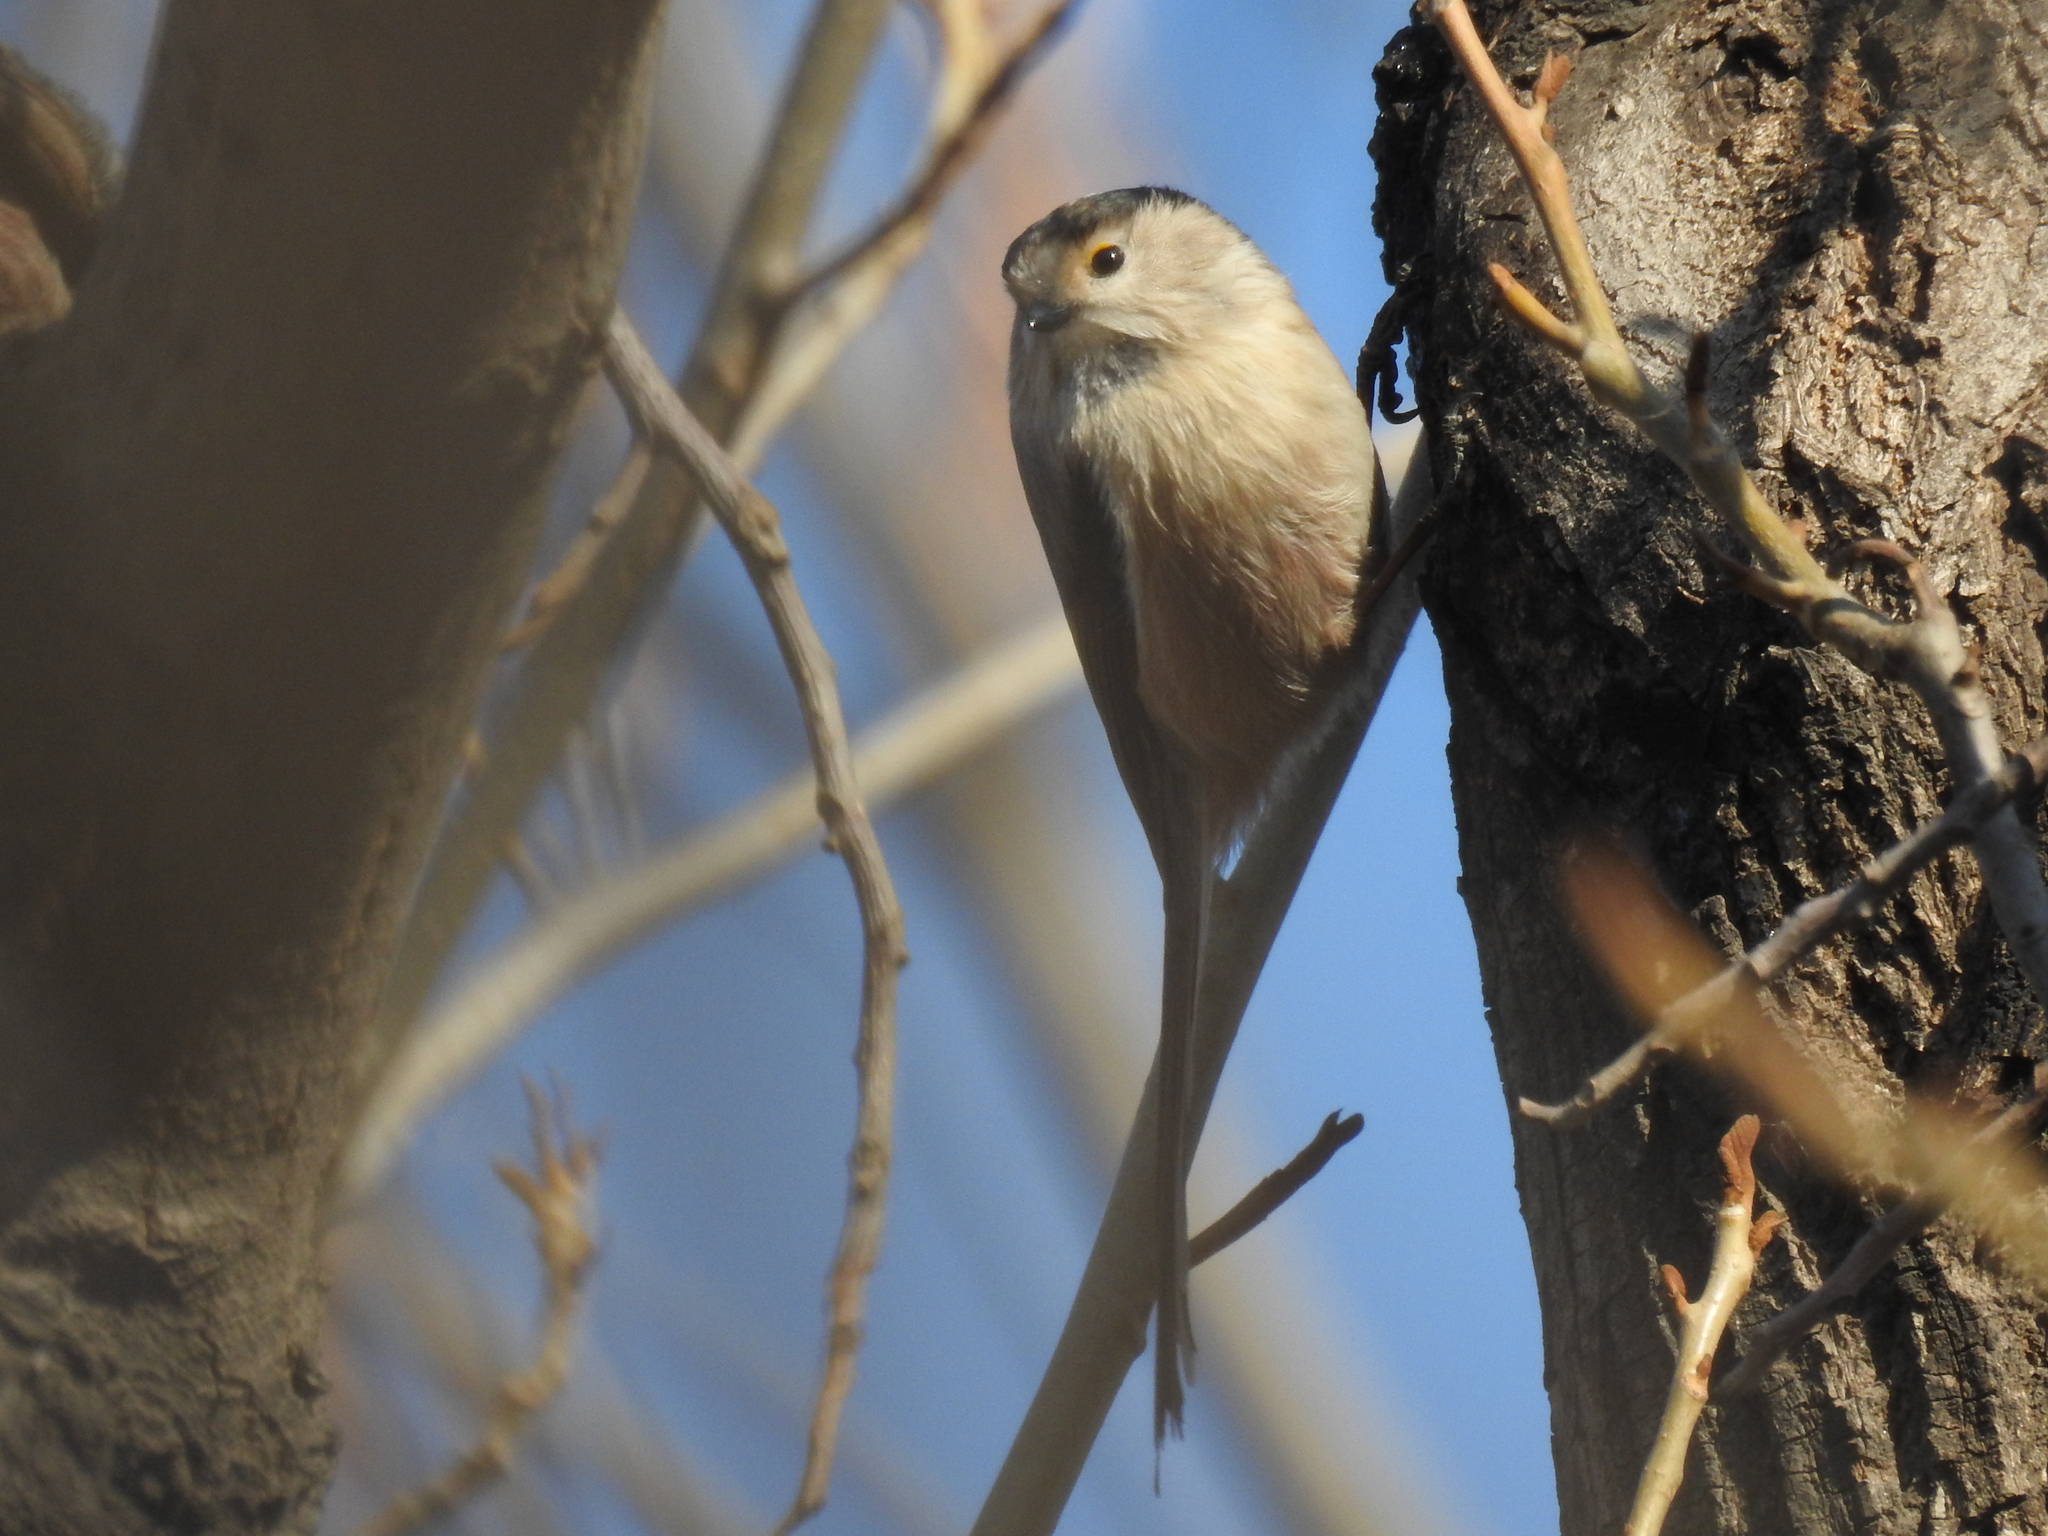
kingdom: Animalia
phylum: Chordata
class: Aves
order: Passeriformes
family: Aegithalidae
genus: Aegithalos
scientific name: Aegithalos glaucogularis
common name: Silver-throated bushtit
